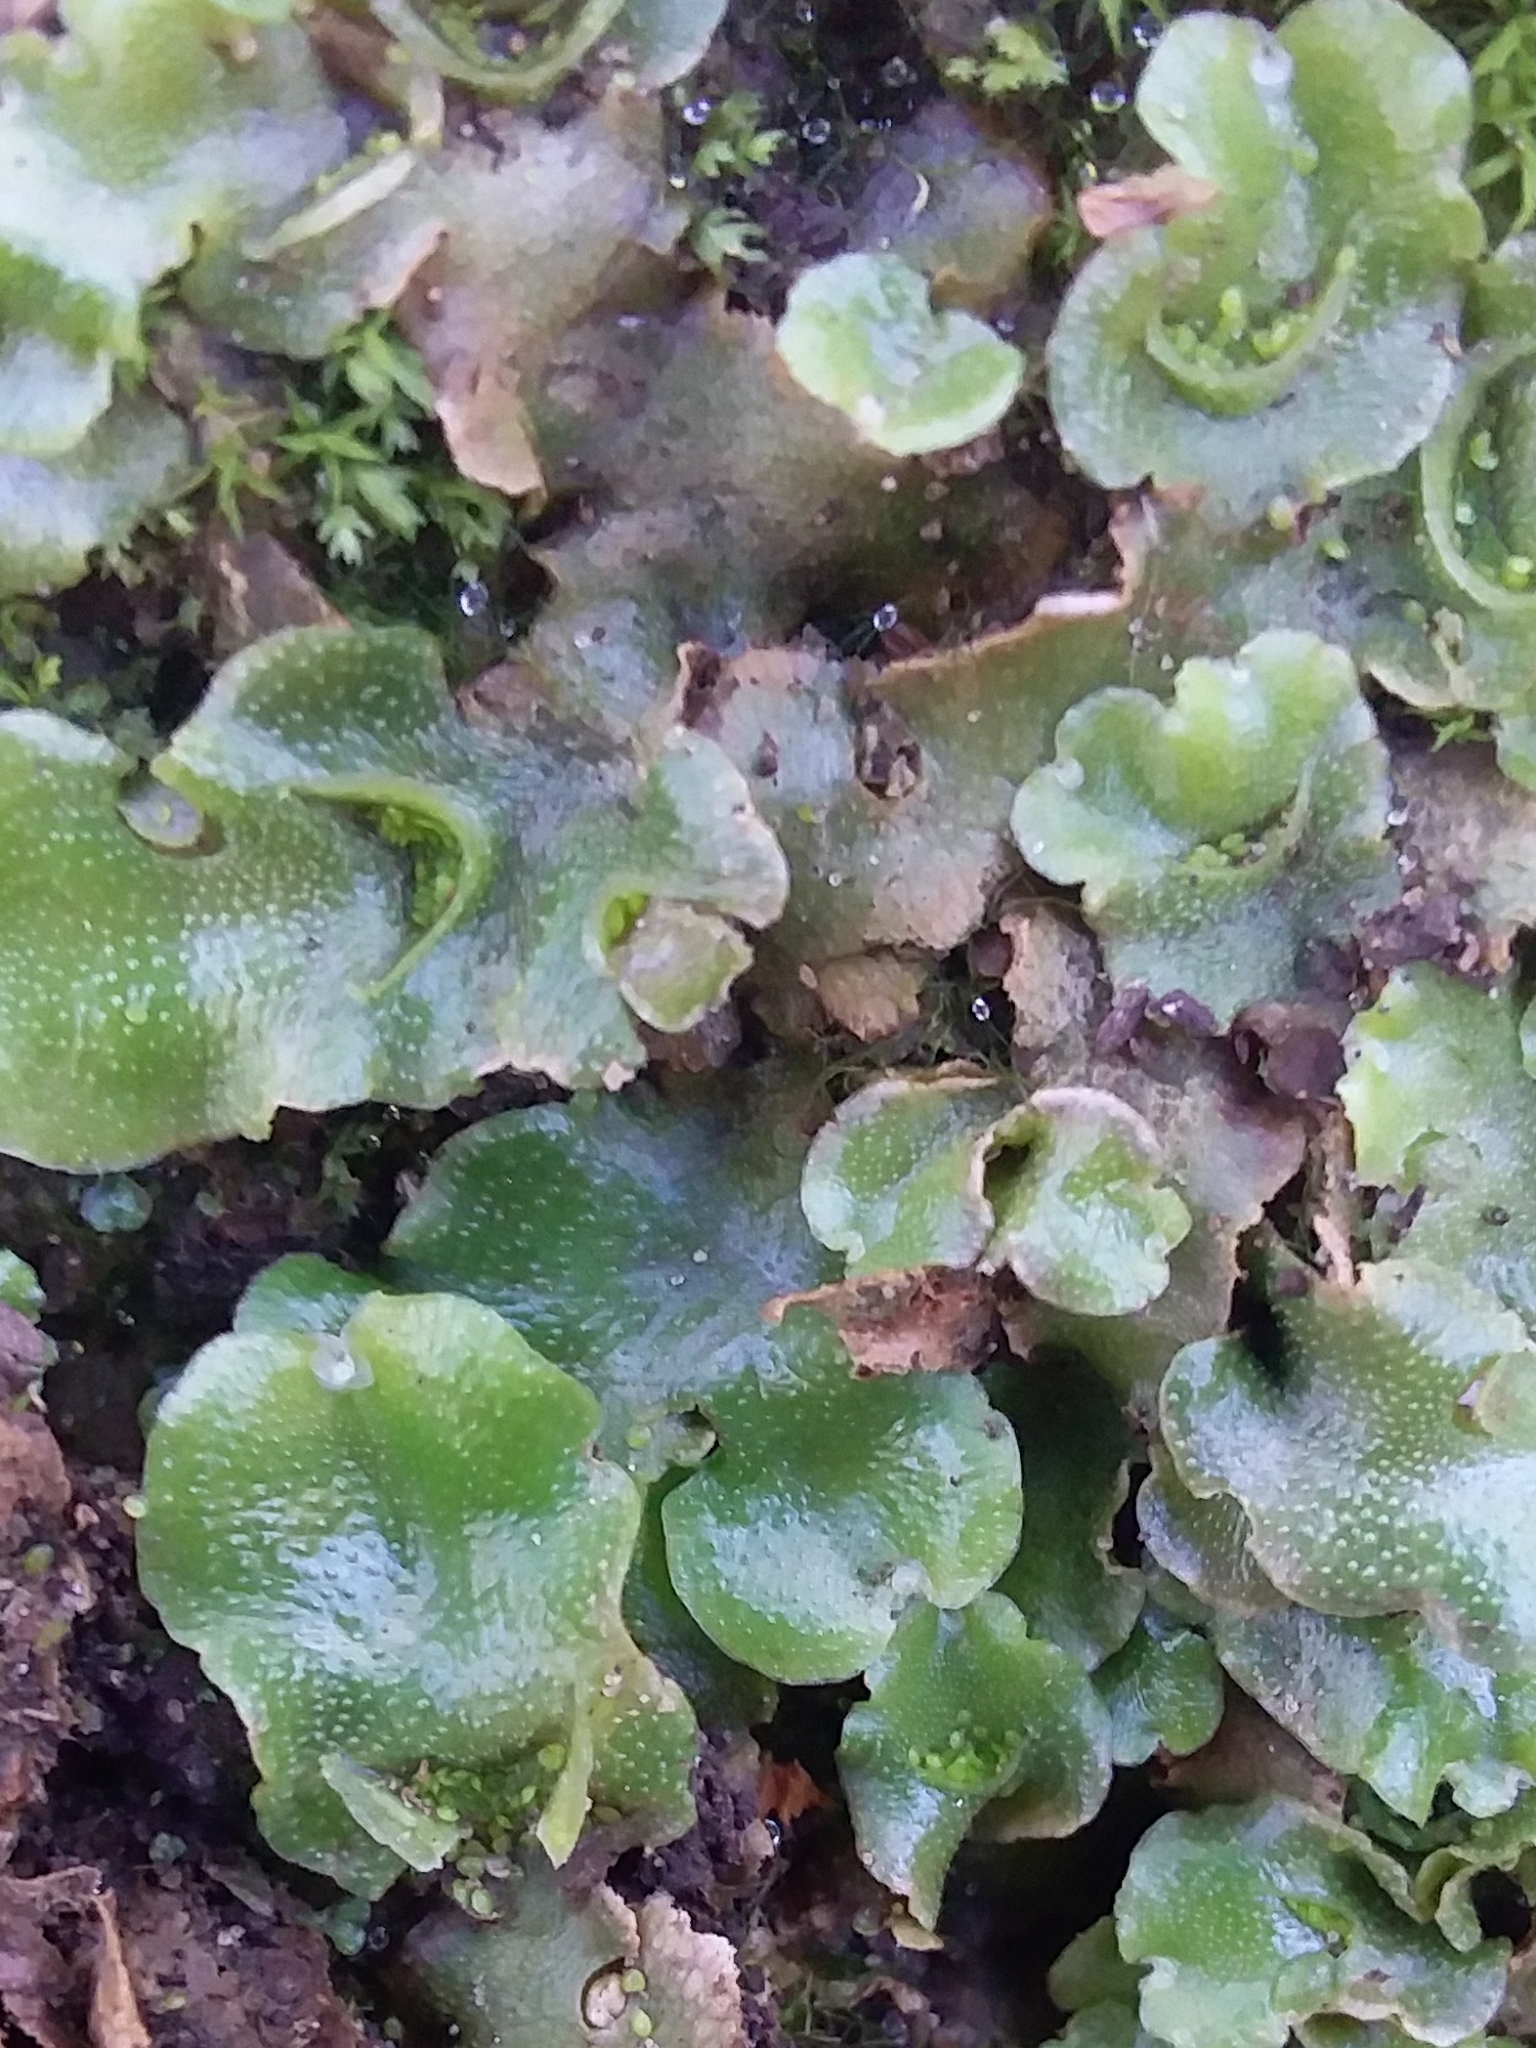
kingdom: Plantae
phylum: Marchantiophyta
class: Marchantiopsida
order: Lunulariales
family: Lunulariaceae
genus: Lunularia
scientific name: Lunularia cruciata
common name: Crescent-cup liverwort
